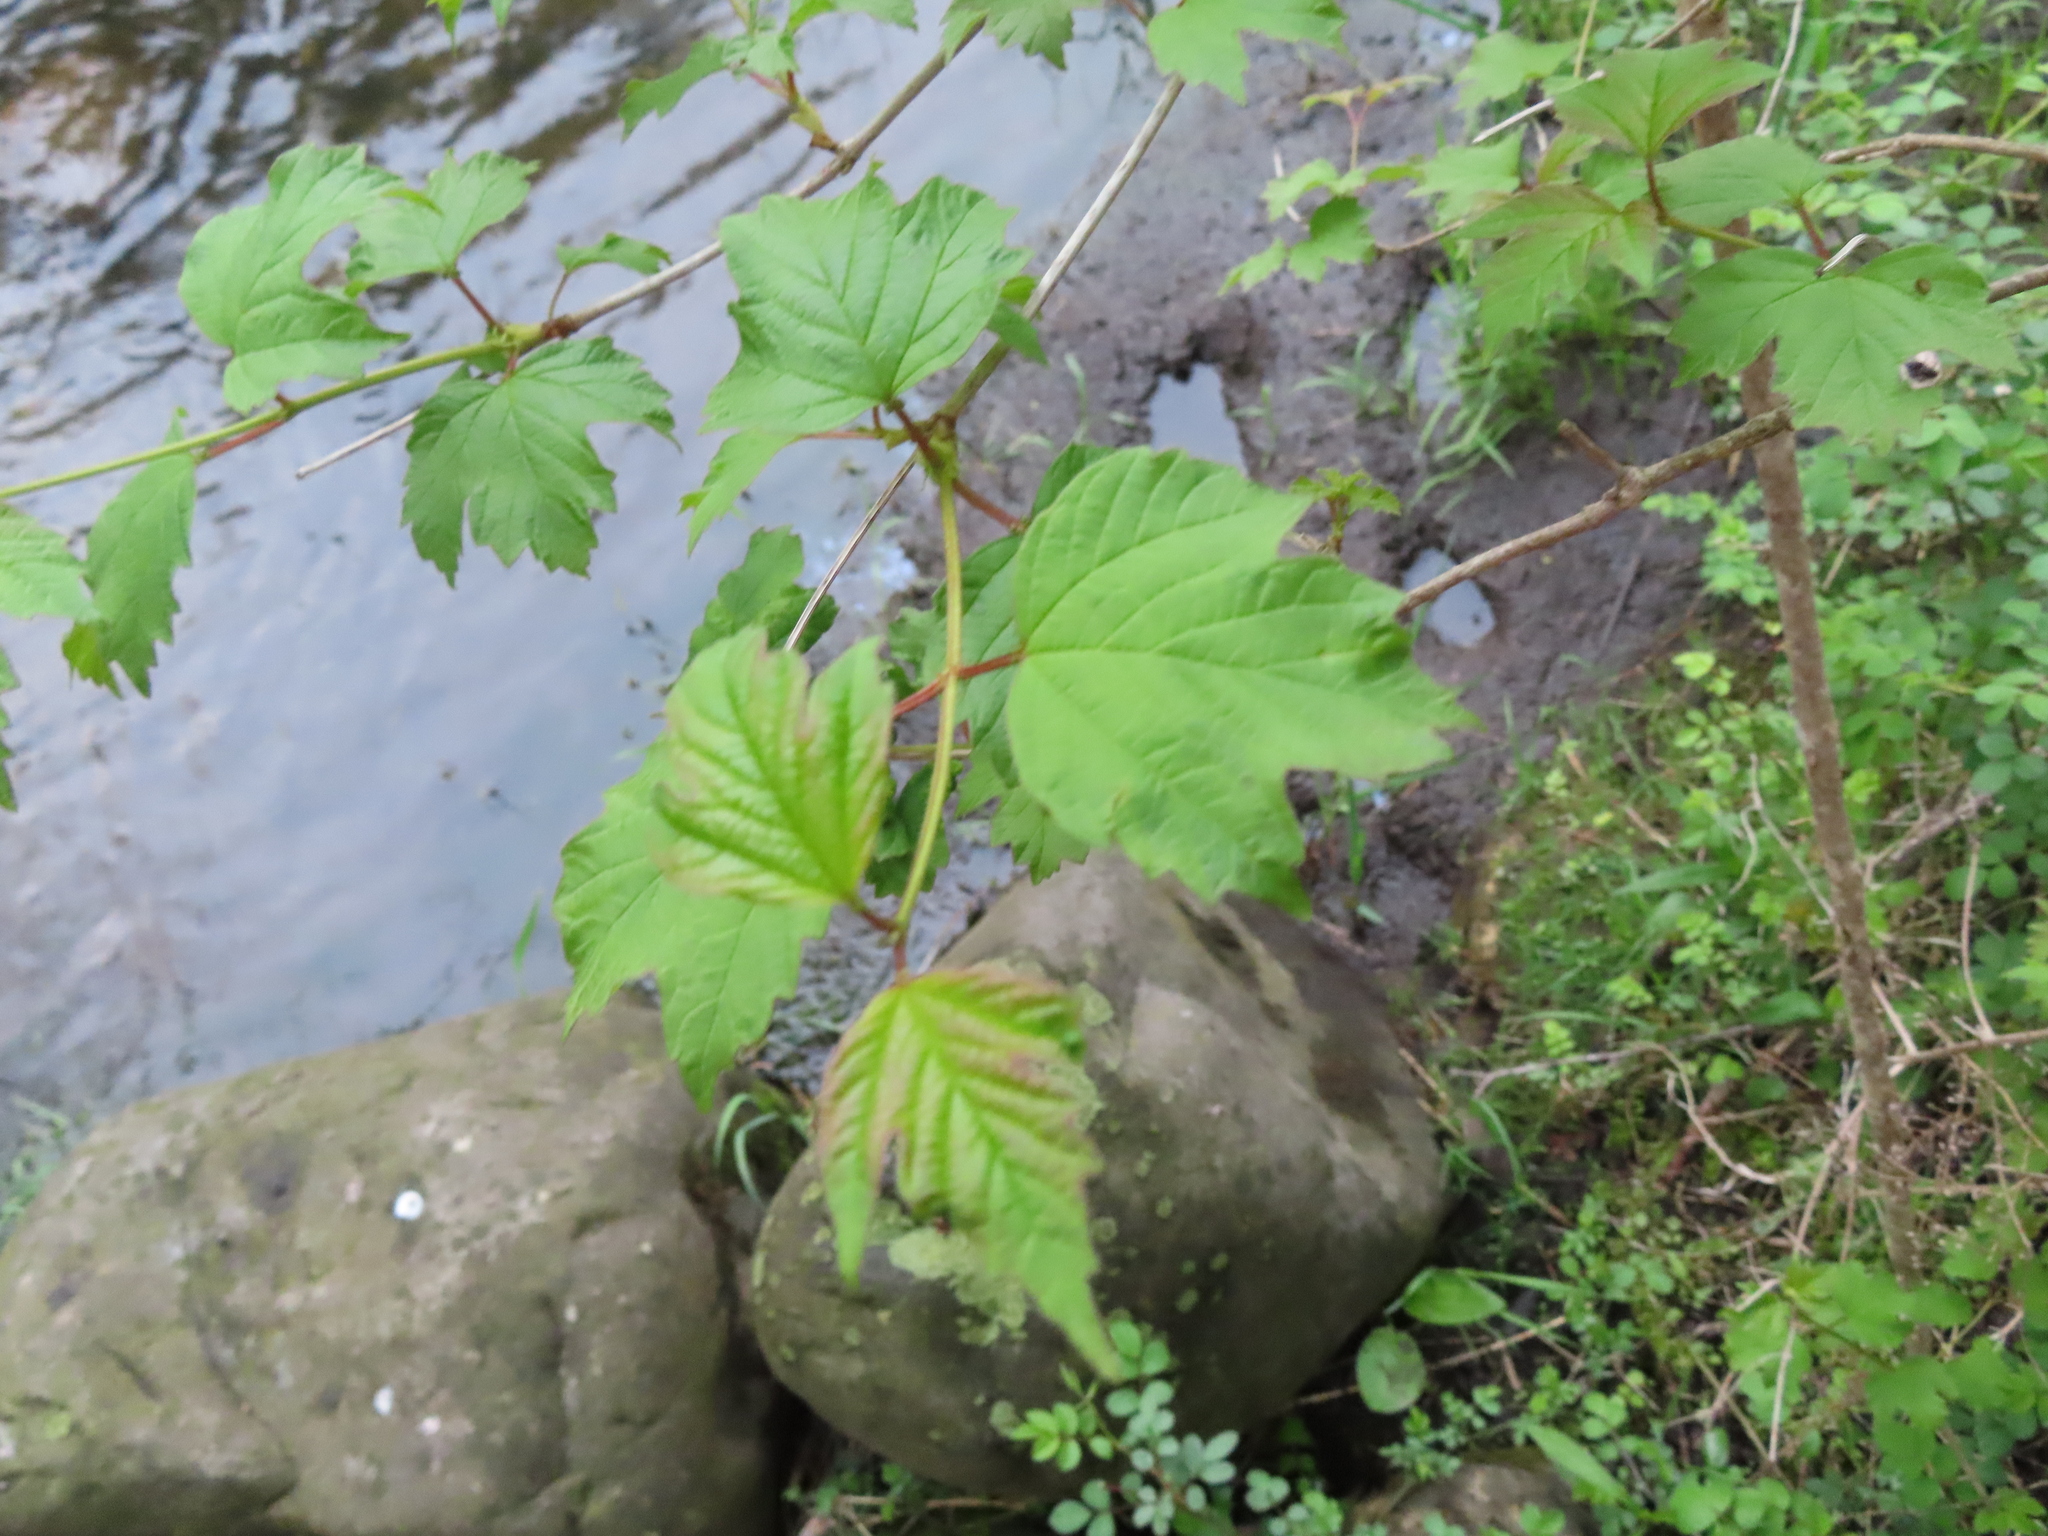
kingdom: Plantae
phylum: Tracheophyta
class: Magnoliopsida
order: Dipsacales
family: Viburnaceae
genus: Viburnum
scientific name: Viburnum opulus
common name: Guelder-rose
